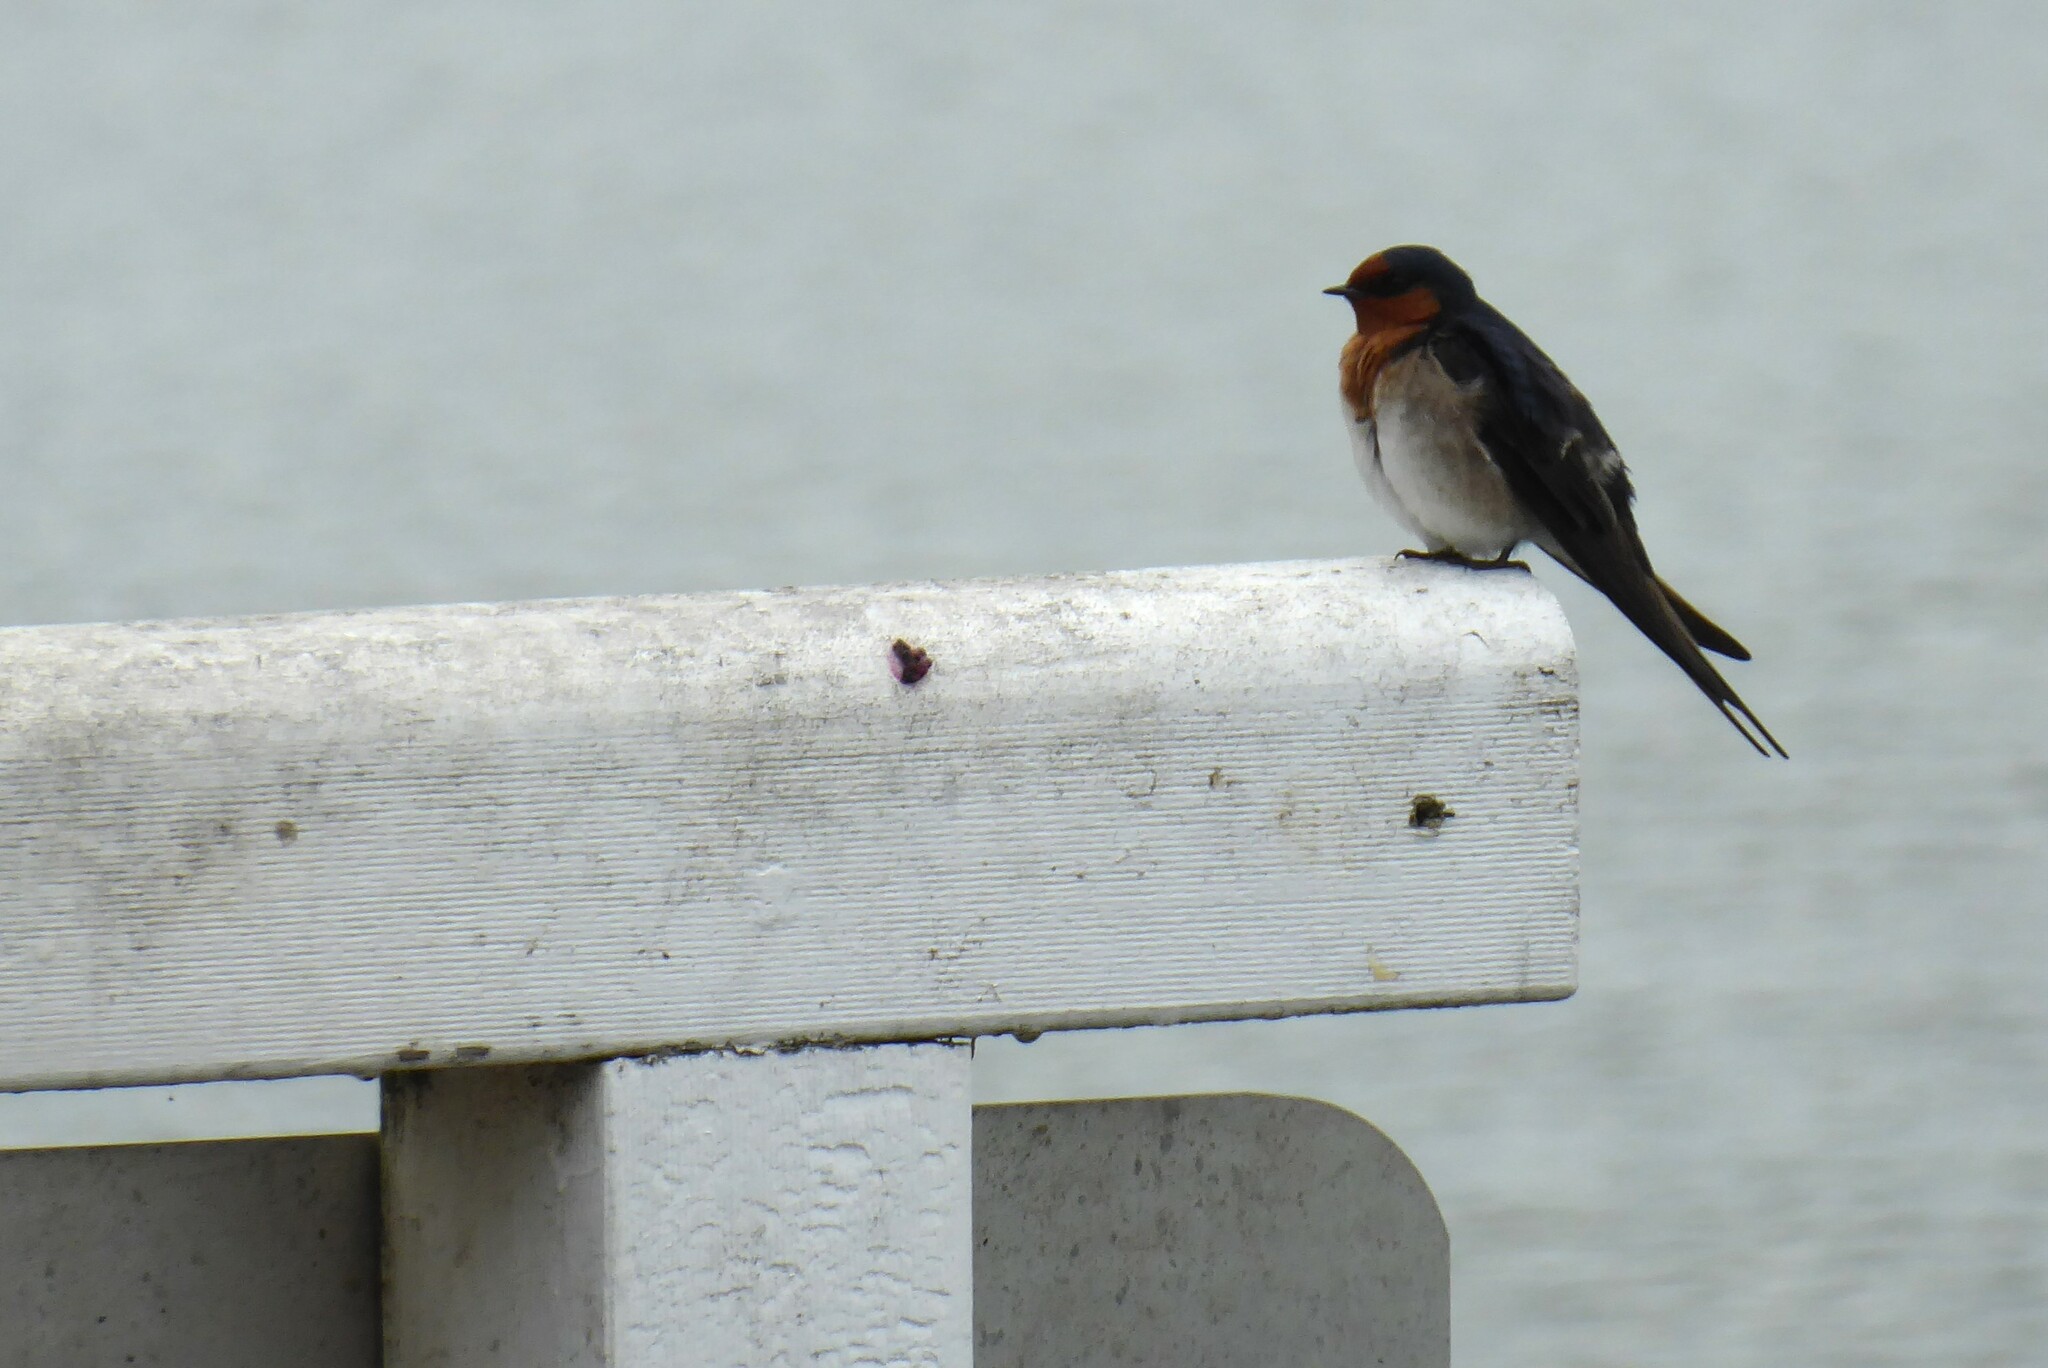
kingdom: Animalia
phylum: Chordata
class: Aves
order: Passeriformes
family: Hirundinidae
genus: Hirundo
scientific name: Hirundo neoxena
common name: Welcome swallow
